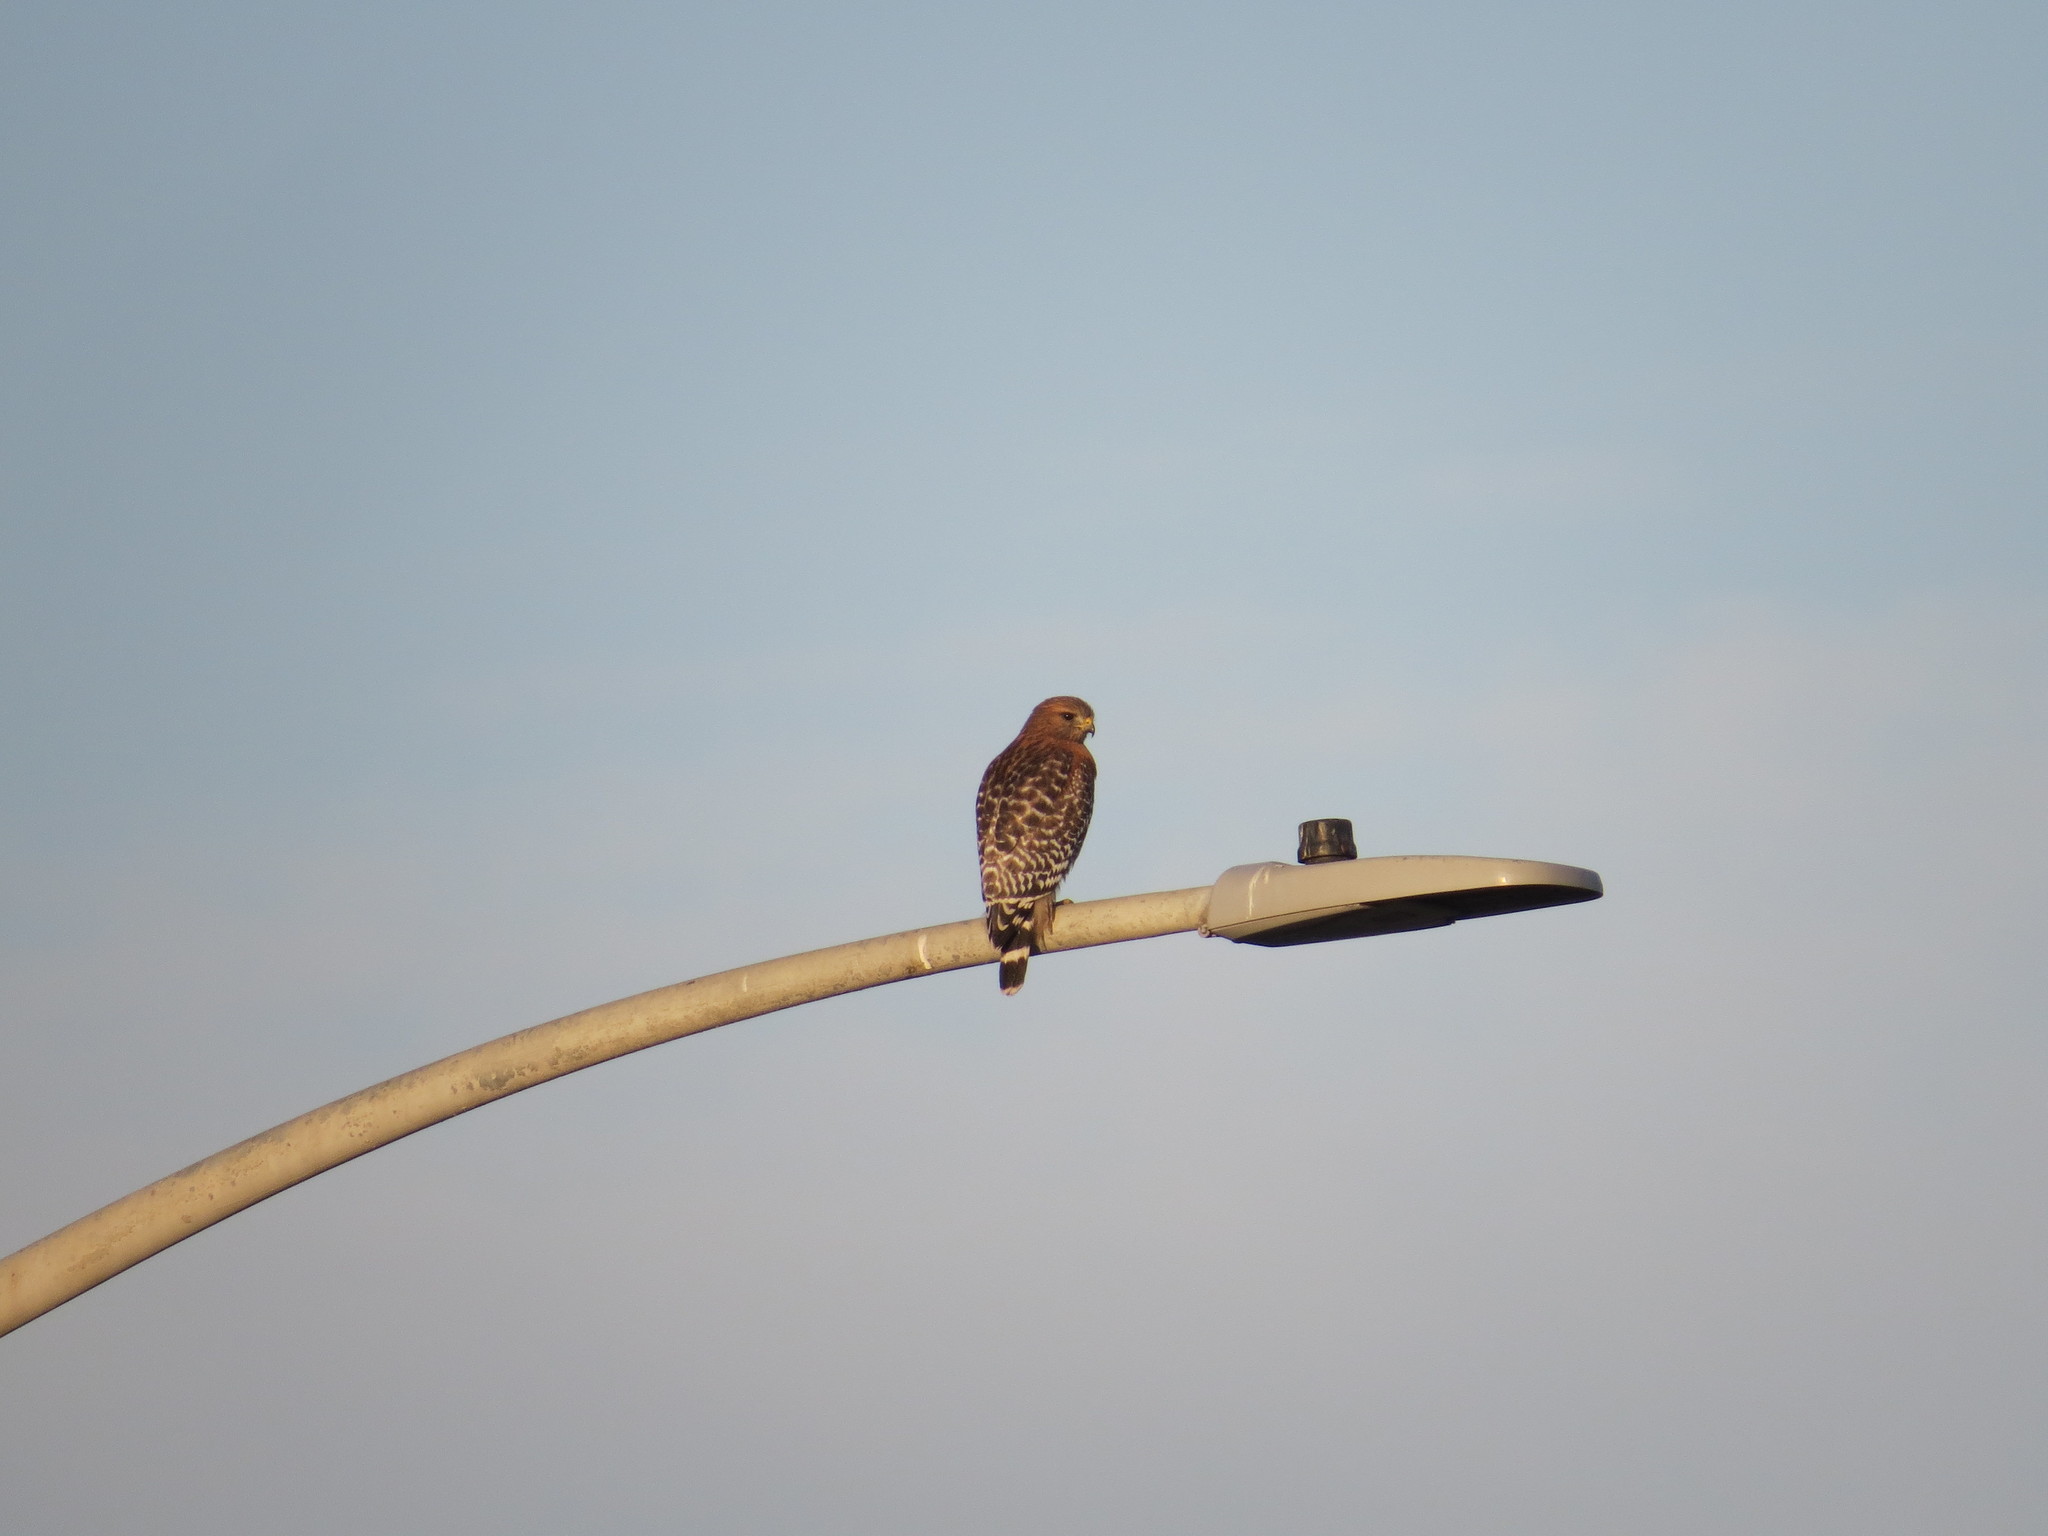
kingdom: Animalia
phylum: Chordata
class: Aves
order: Accipitriformes
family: Accipitridae
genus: Buteo
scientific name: Buteo lineatus
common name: Red-shouldered hawk
